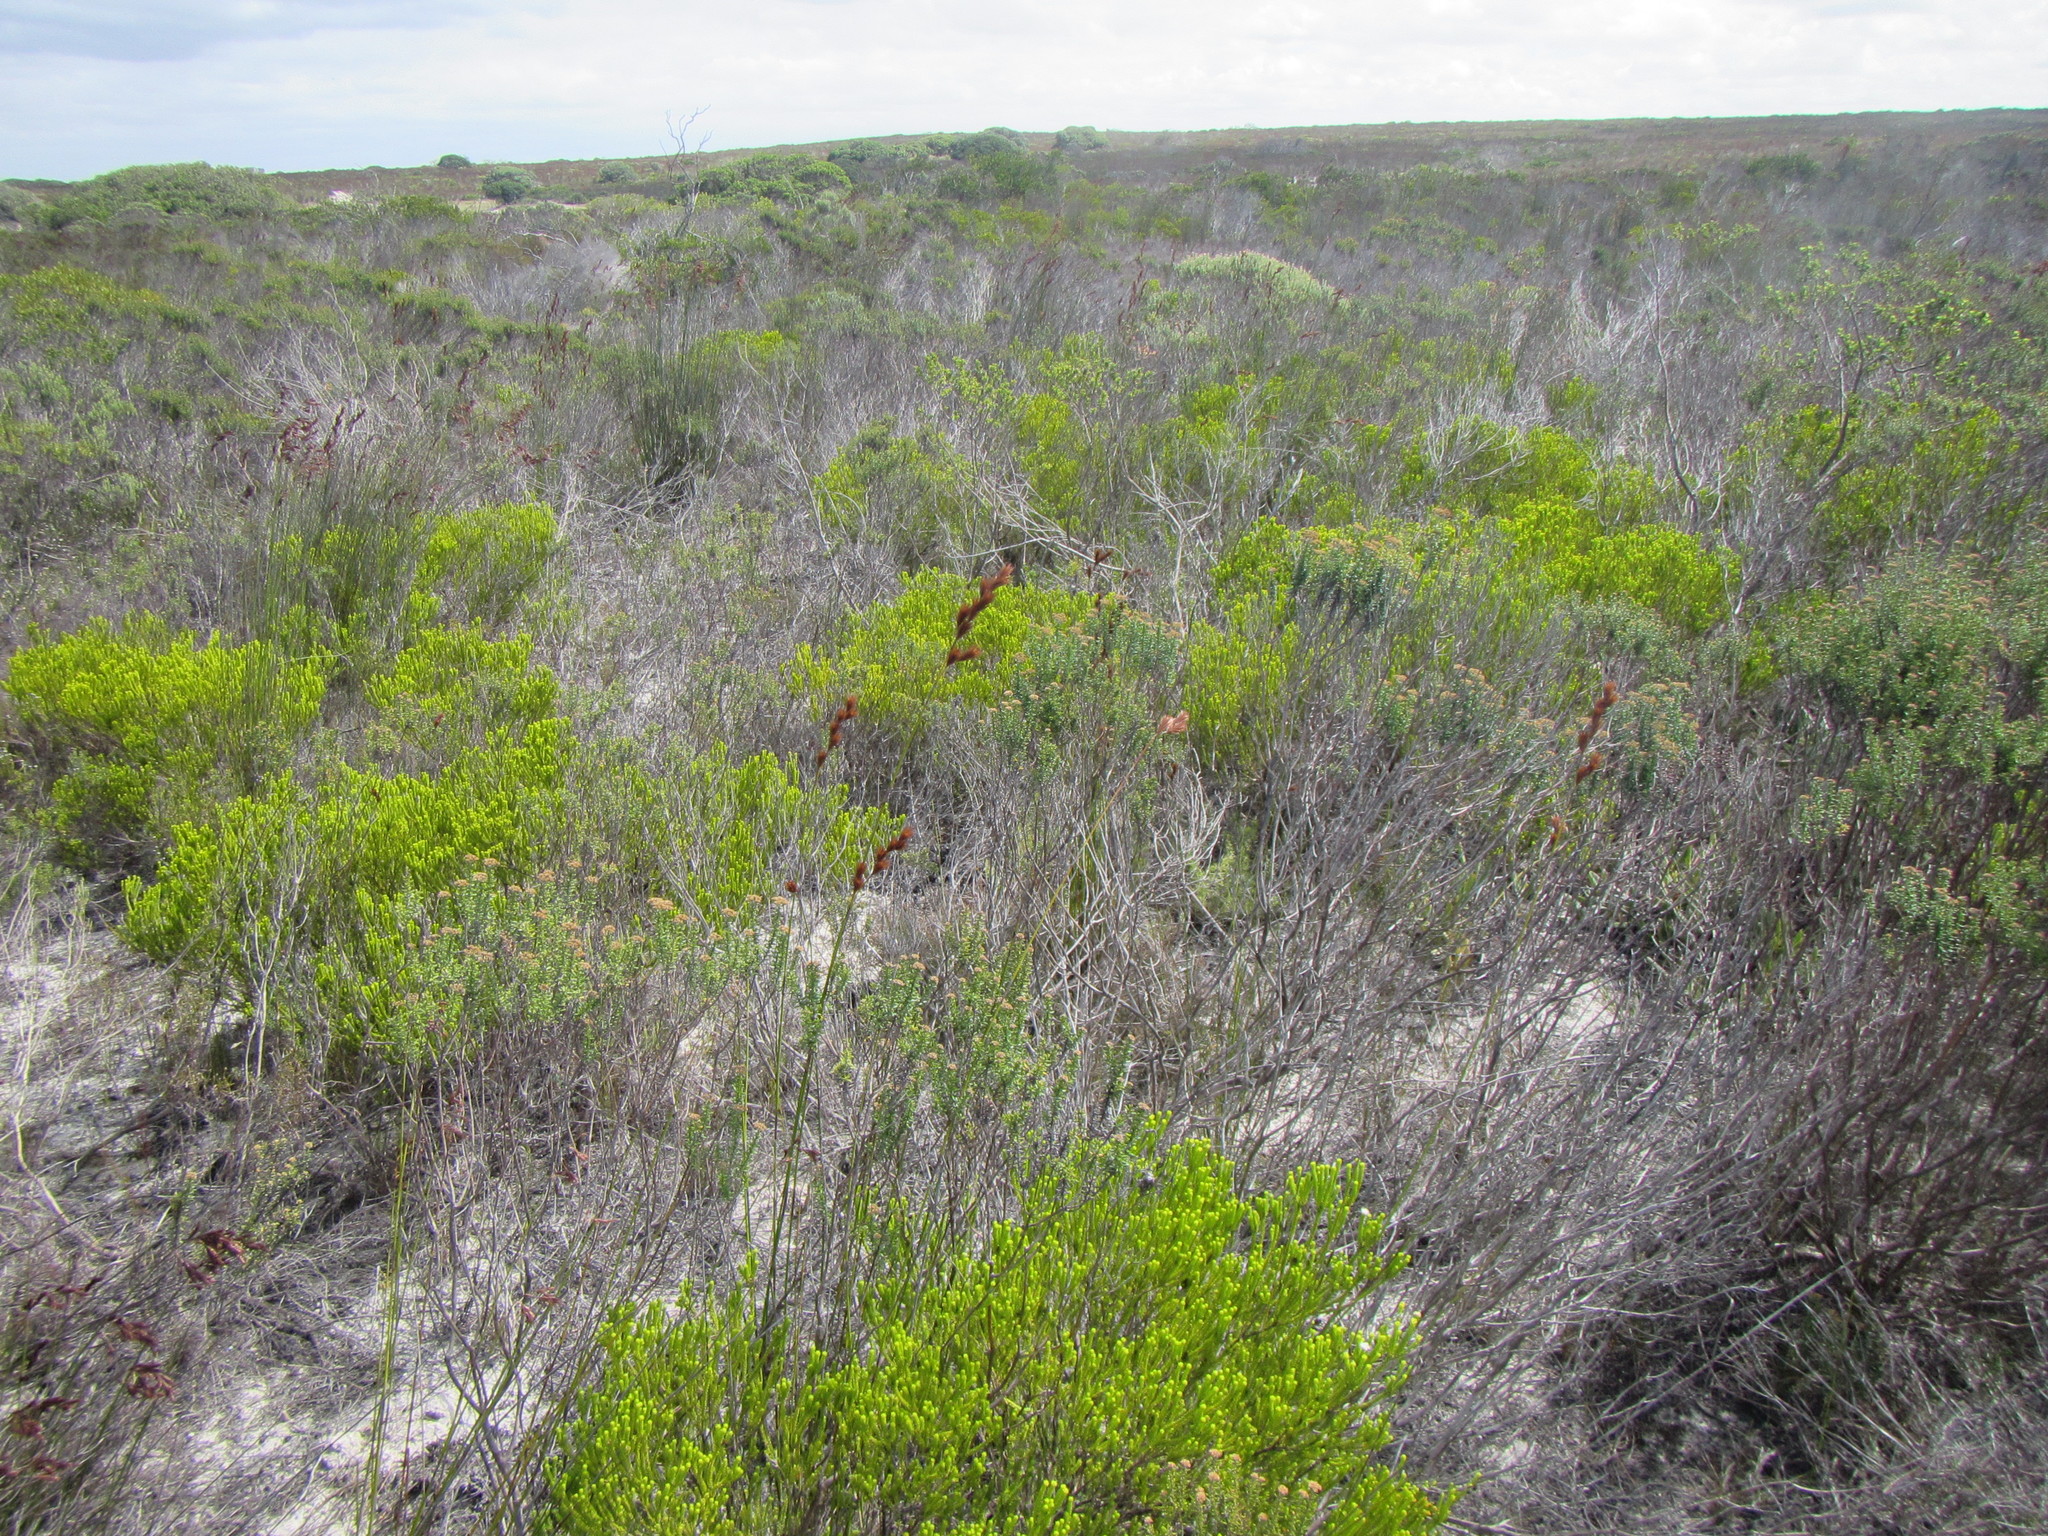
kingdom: Plantae
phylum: Tracheophyta
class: Magnoliopsida
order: Sapindales
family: Rutaceae
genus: Agathosma
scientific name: Agathosma collina
